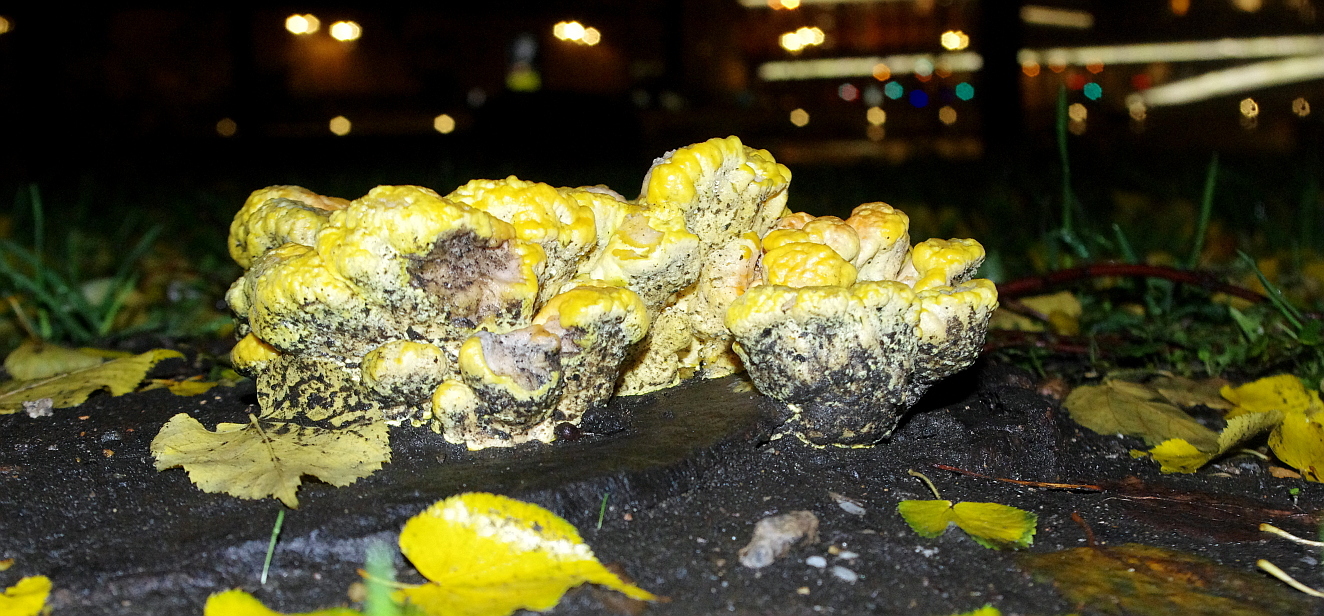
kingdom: Fungi
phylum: Basidiomycota
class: Agaricomycetes
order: Polyporales
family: Laetiporaceae
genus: Laetiporus
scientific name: Laetiporus sulphureus
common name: Chicken of the woods
